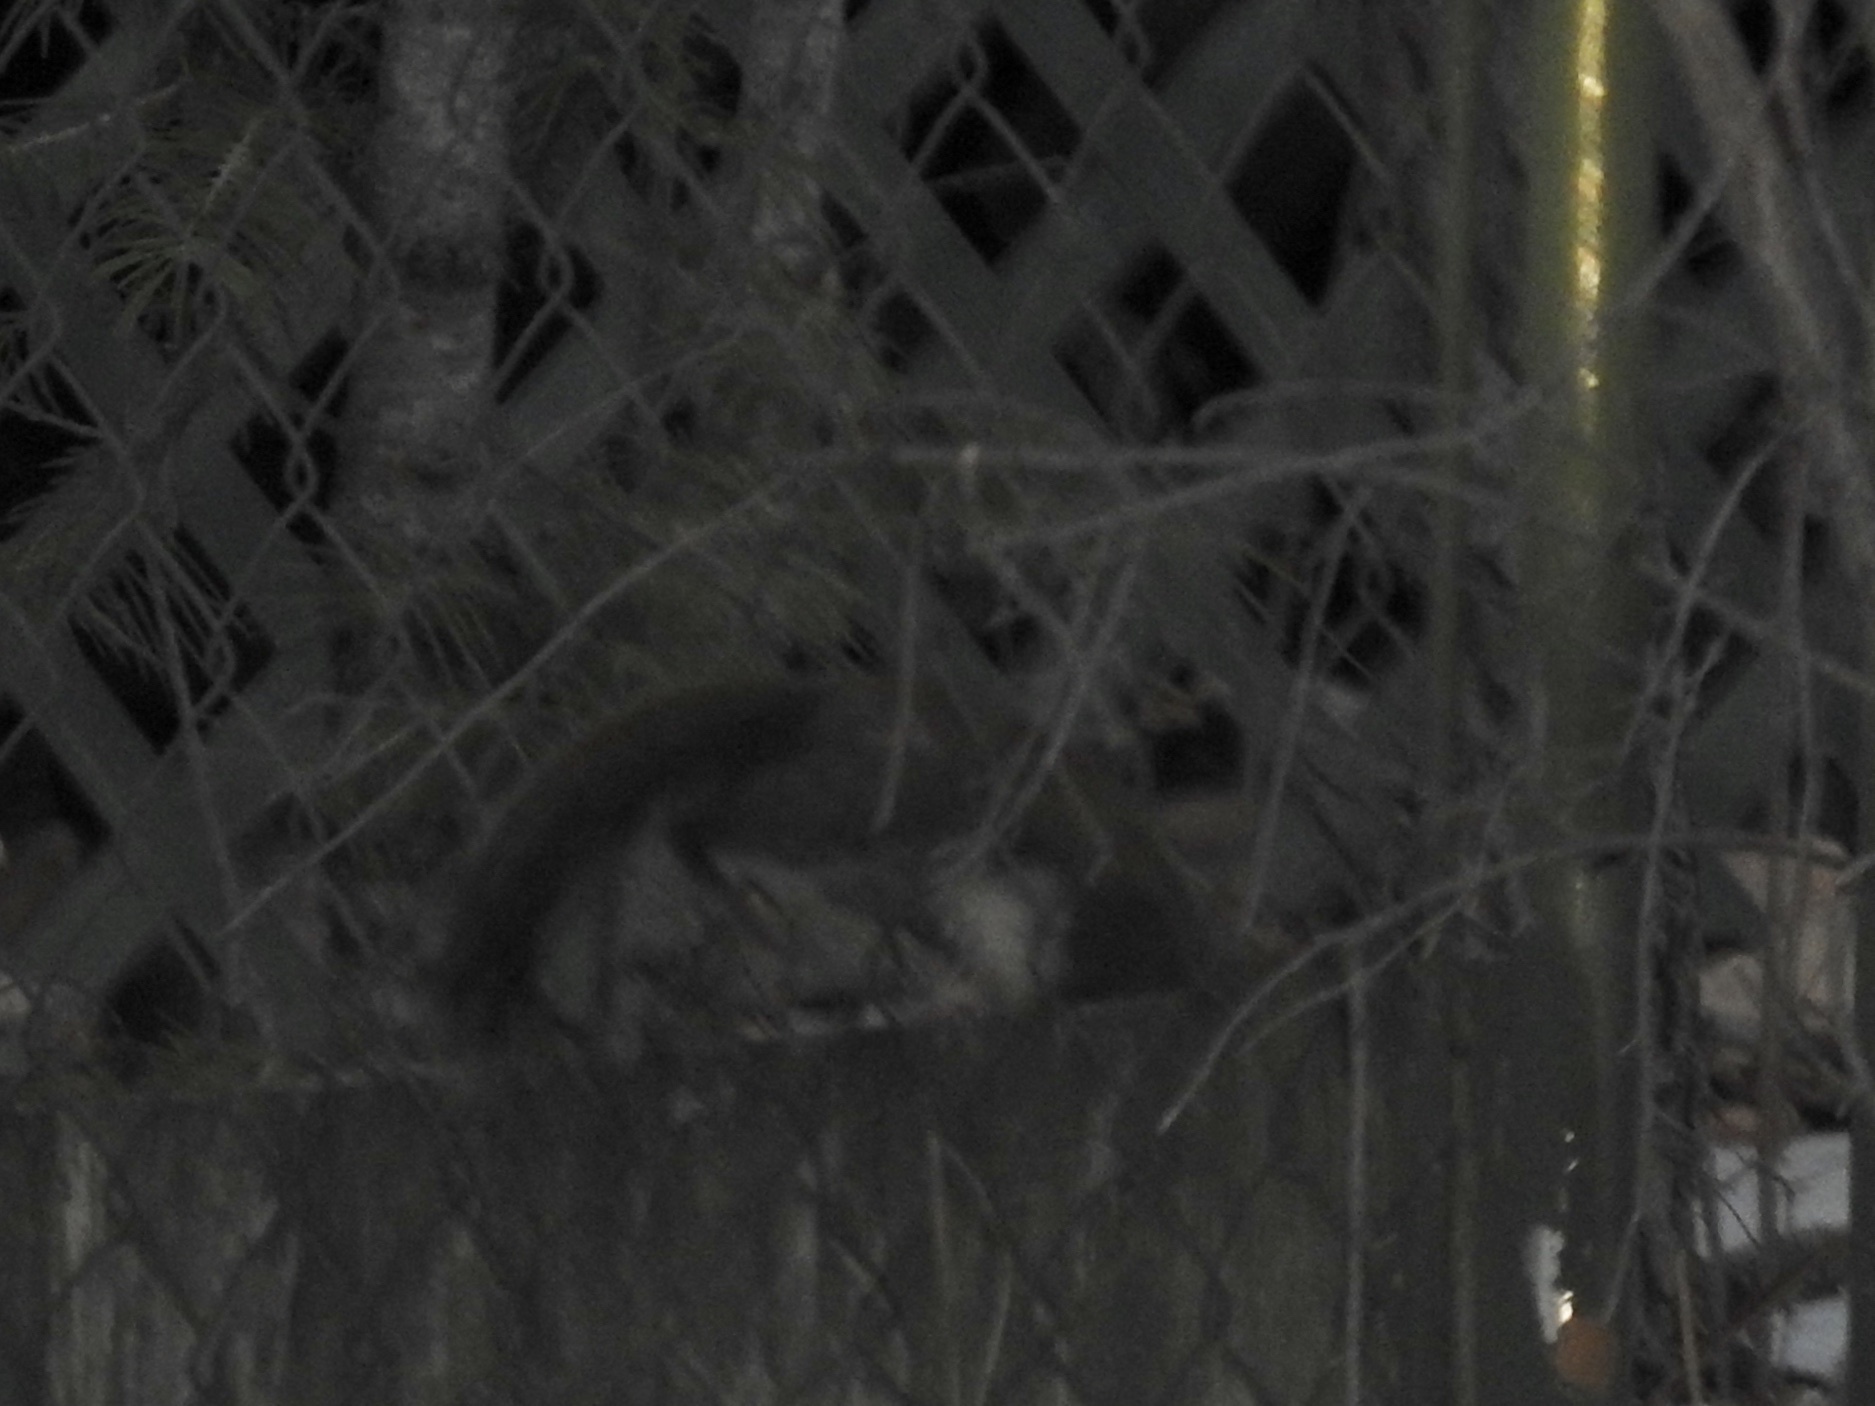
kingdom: Animalia
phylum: Chordata
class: Mammalia
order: Rodentia
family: Sciuridae
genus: Tamiasciurus
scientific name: Tamiasciurus hudsonicus
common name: Red squirrel
